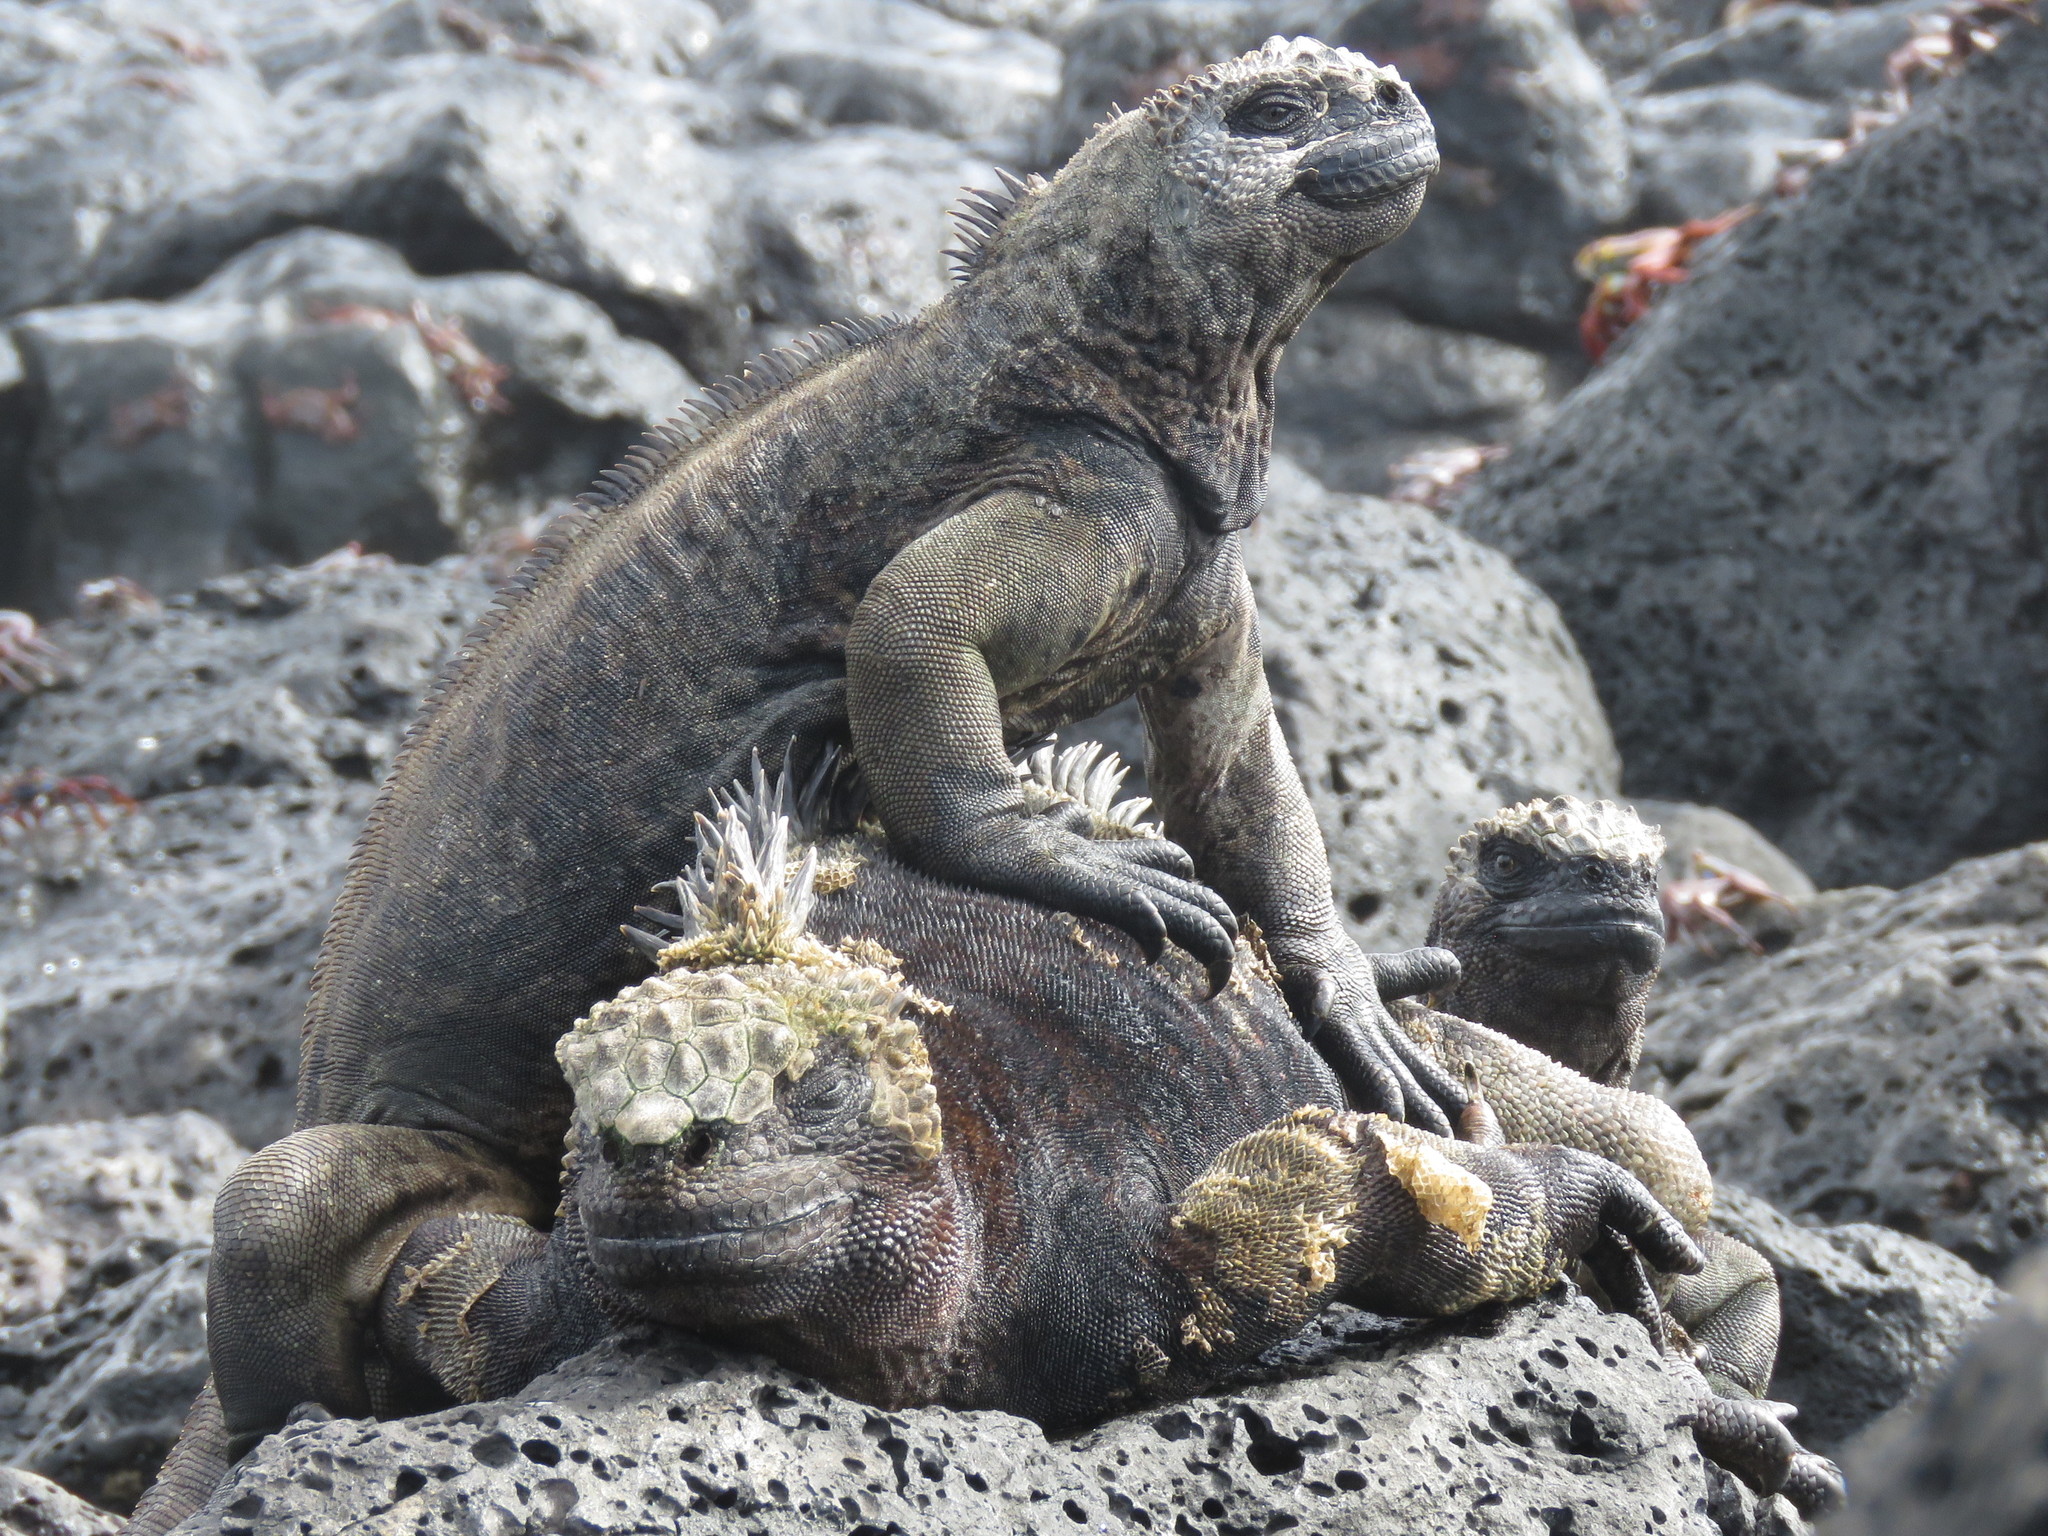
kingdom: Animalia
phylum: Chordata
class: Squamata
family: Iguanidae
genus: Amblyrhynchus
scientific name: Amblyrhynchus cristatus
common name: Marine iguana
